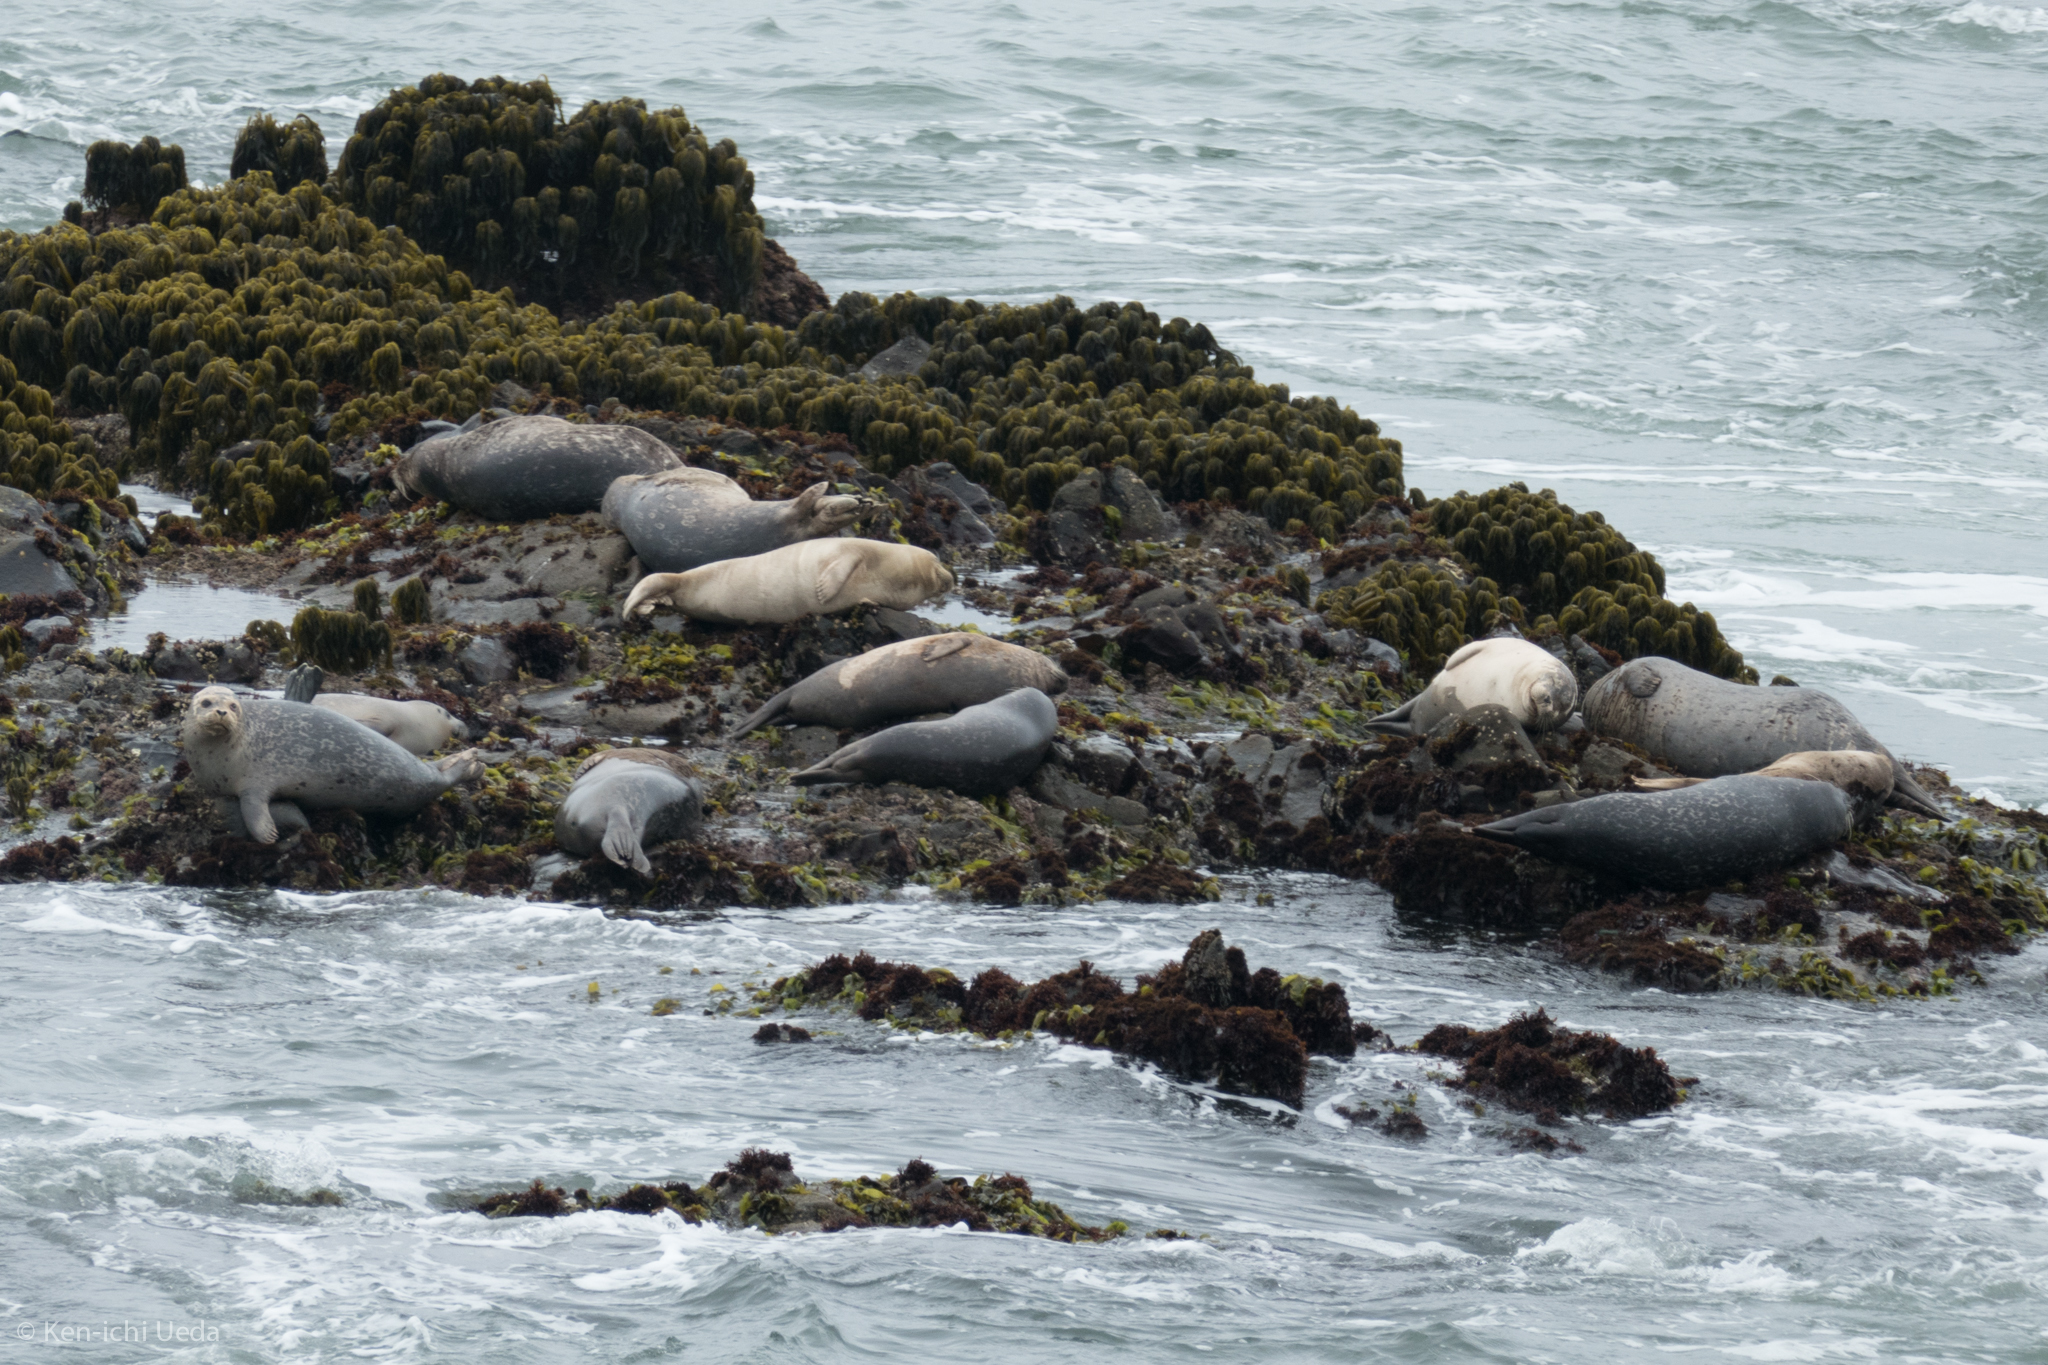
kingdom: Animalia
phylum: Chordata
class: Mammalia
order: Carnivora
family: Phocidae
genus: Phoca
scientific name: Phoca vitulina
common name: Harbor seal
